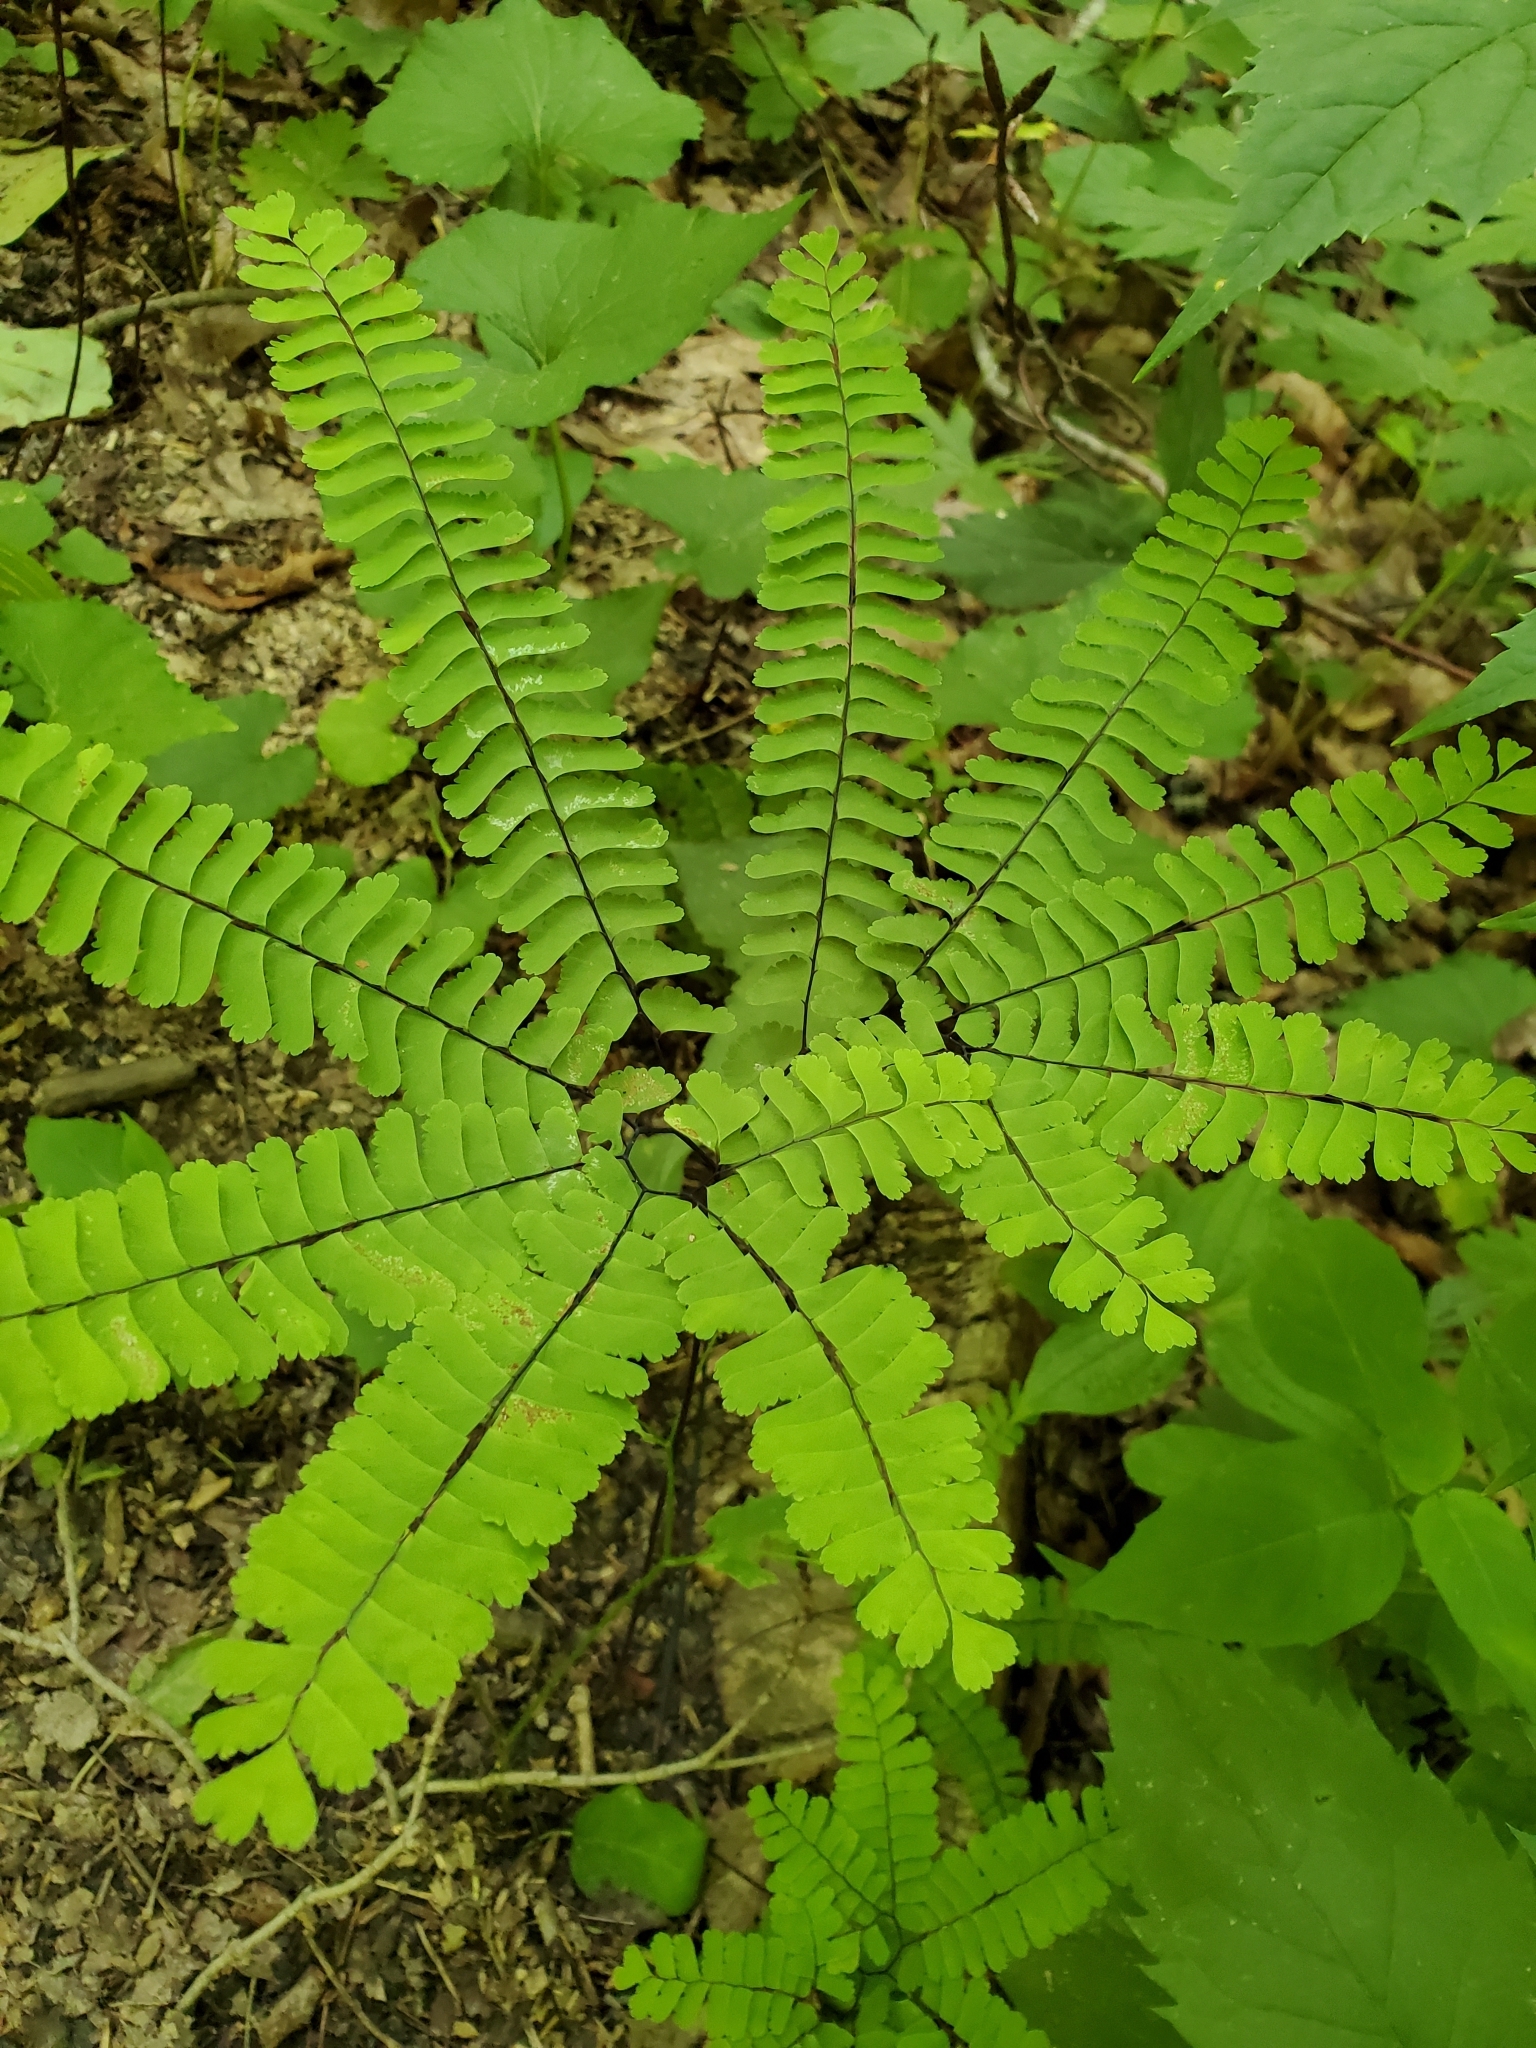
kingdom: Plantae
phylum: Tracheophyta
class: Polypodiopsida
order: Polypodiales
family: Pteridaceae
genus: Adiantum
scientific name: Adiantum pedatum
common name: Five-finger fern
